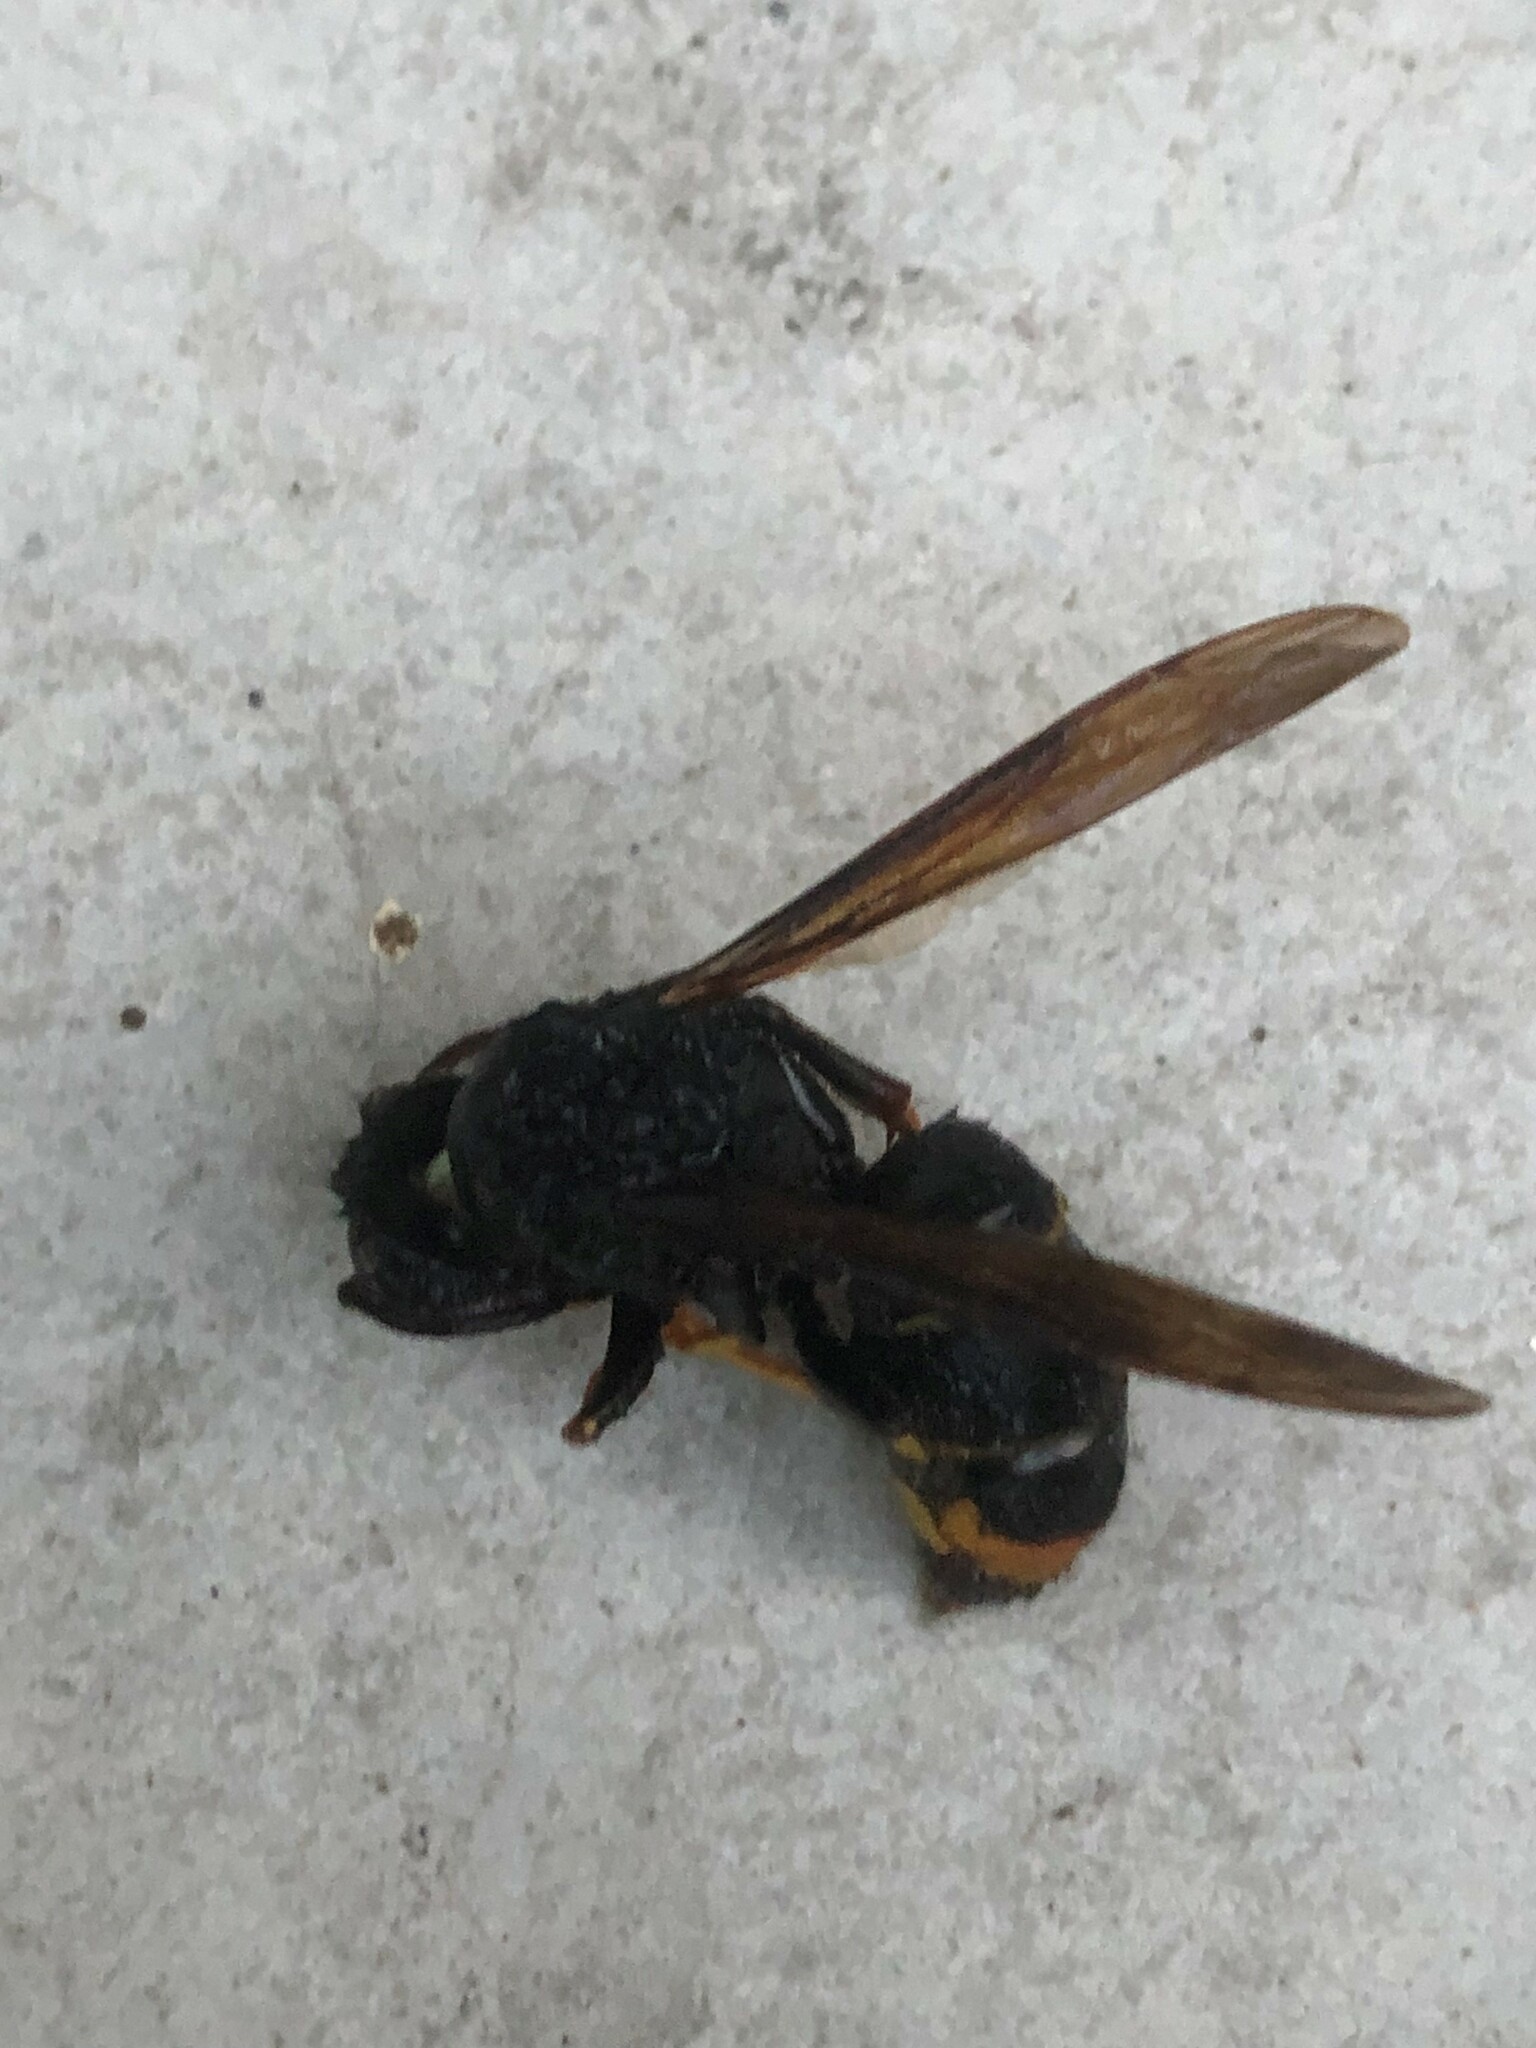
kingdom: Animalia
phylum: Arthropoda
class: Insecta
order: Hymenoptera
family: Vespidae
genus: Vespa
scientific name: Vespa velutina
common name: Asian hornet
